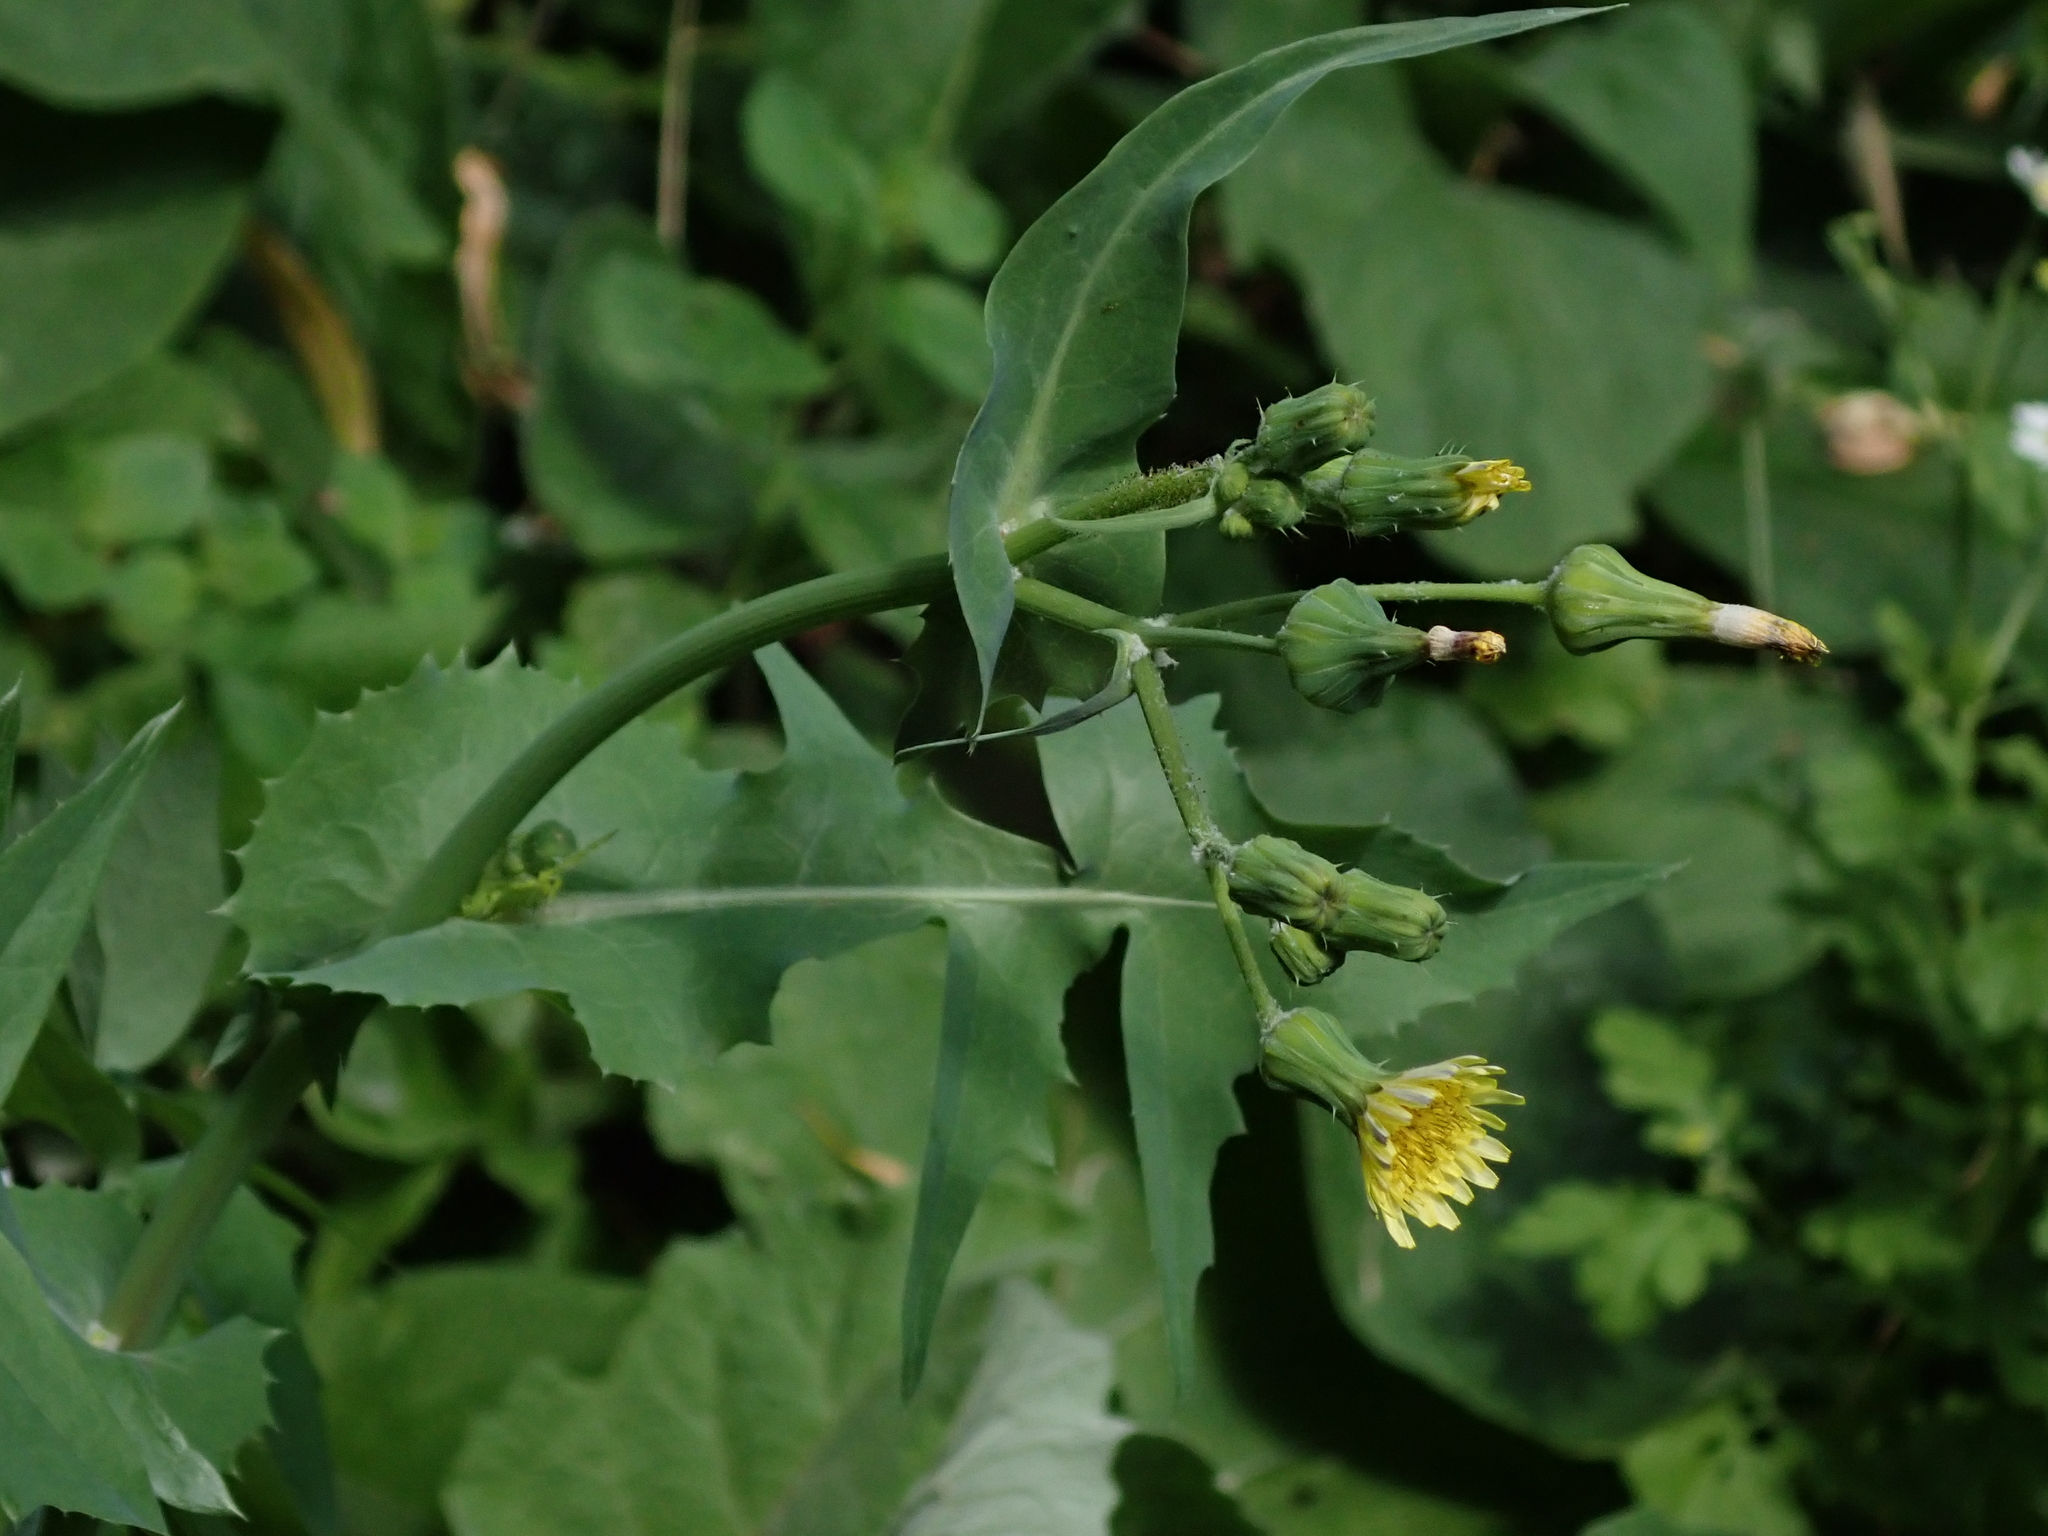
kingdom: Plantae
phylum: Tracheophyta
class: Magnoliopsida
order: Asterales
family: Asteraceae
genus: Sonchus
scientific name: Sonchus oleraceus
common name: Common sowthistle
